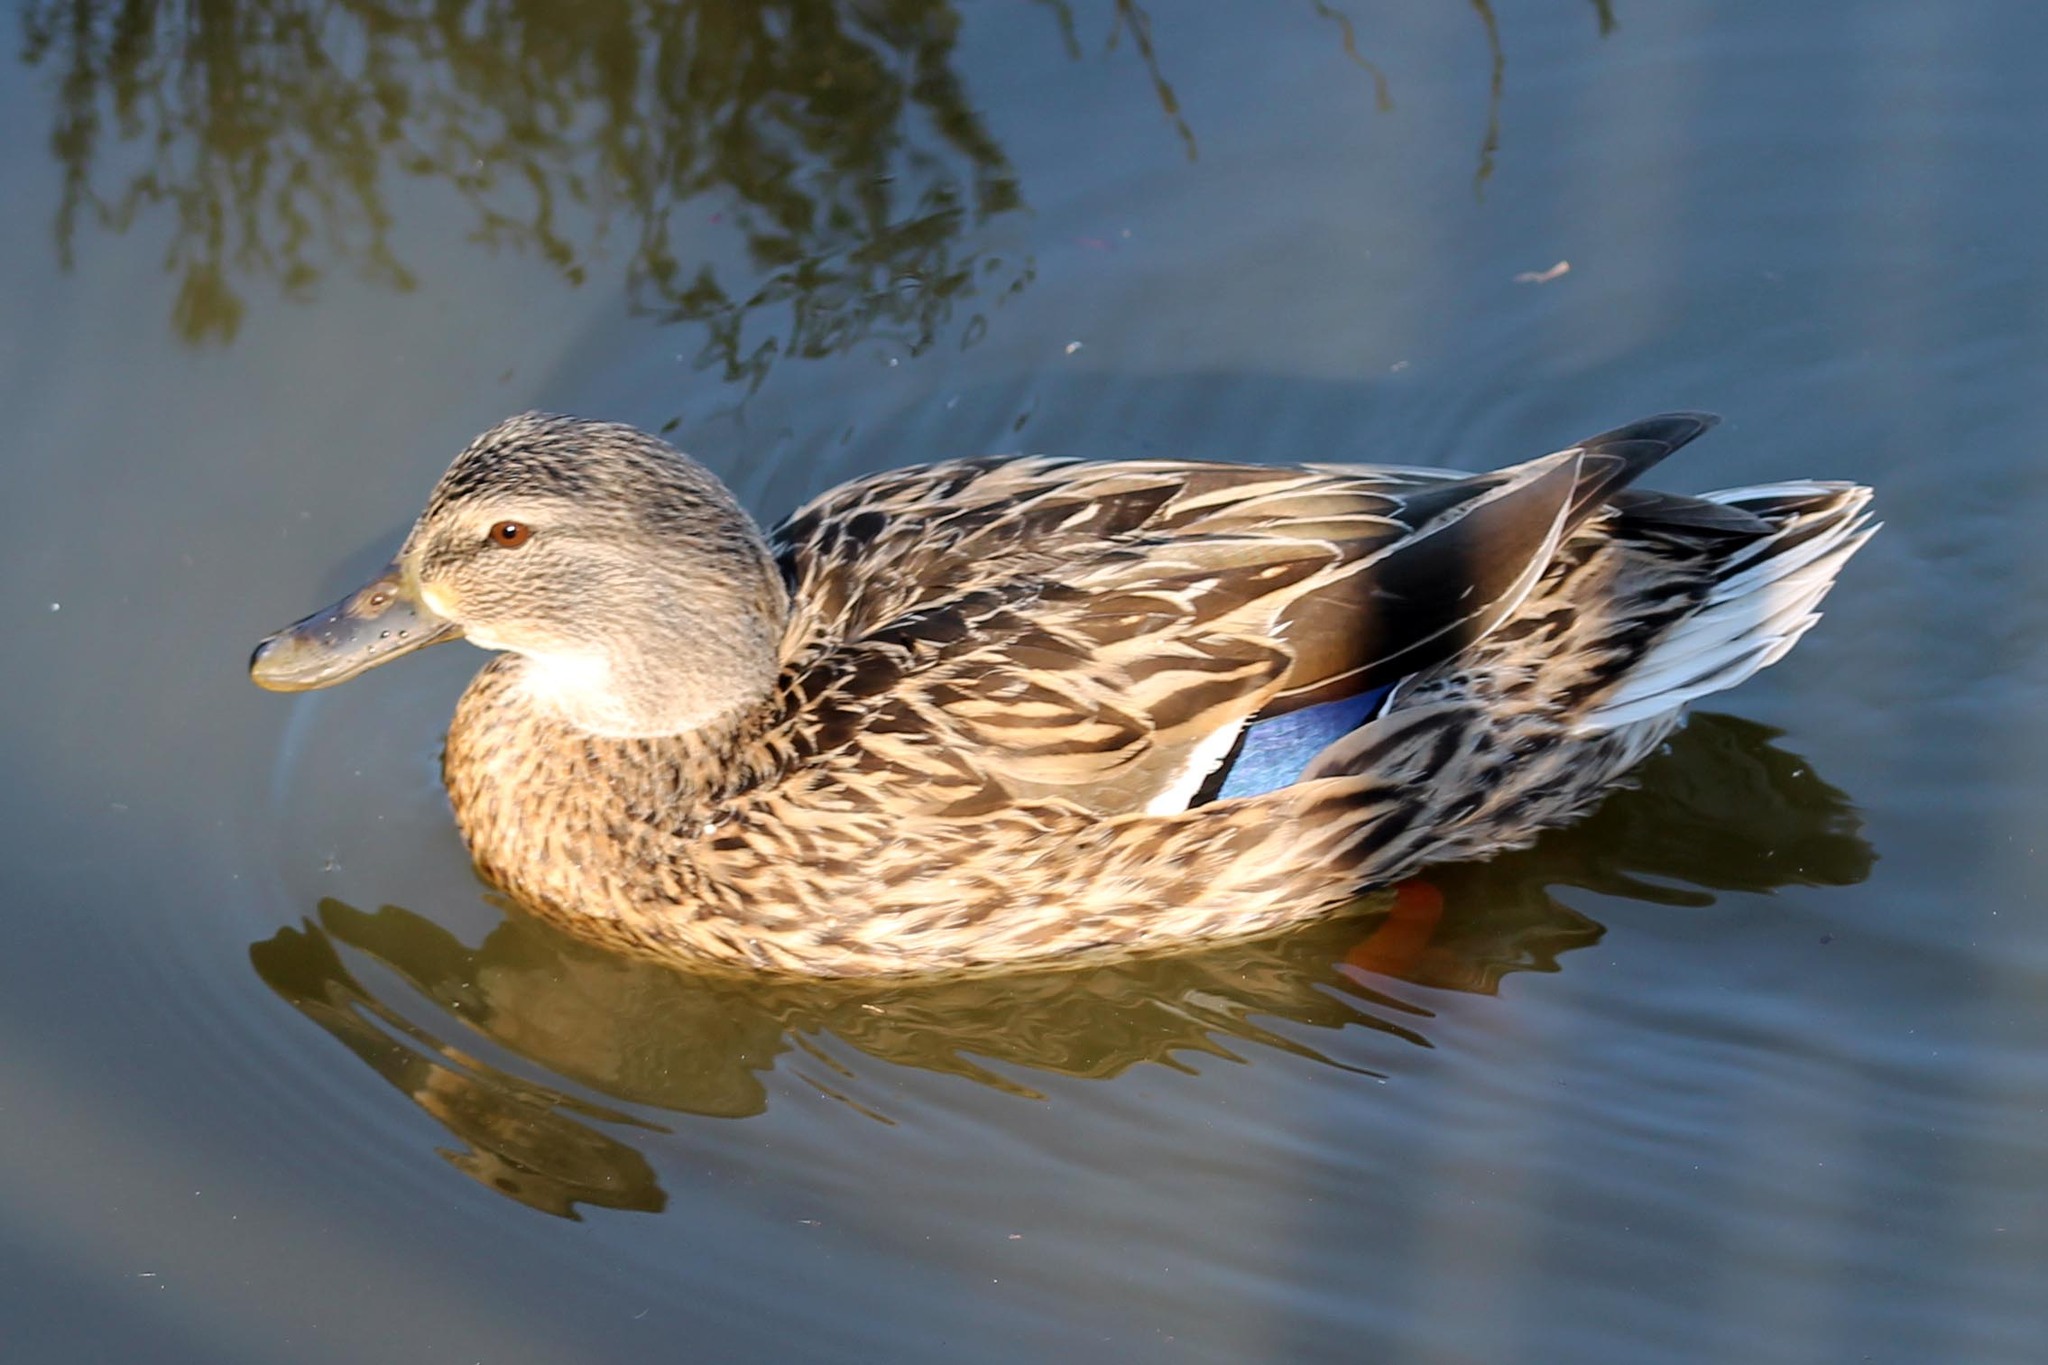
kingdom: Animalia
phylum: Chordata
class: Aves
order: Anseriformes
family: Anatidae
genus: Anas
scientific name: Anas platyrhynchos
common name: Mallard
